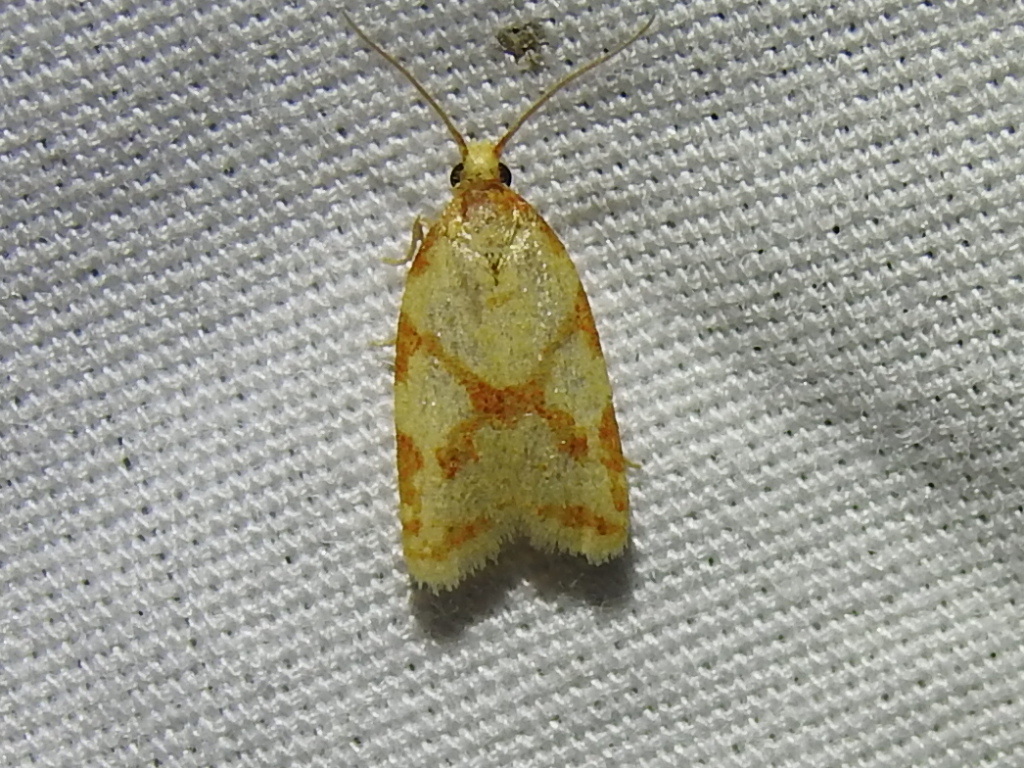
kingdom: Animalia
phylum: Arthropoda
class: Insecta
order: Lepidoptera
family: Tortricidae
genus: Sparganothis
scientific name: Sparganothis sulfureana
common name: Sparganothis fruitworm moth
